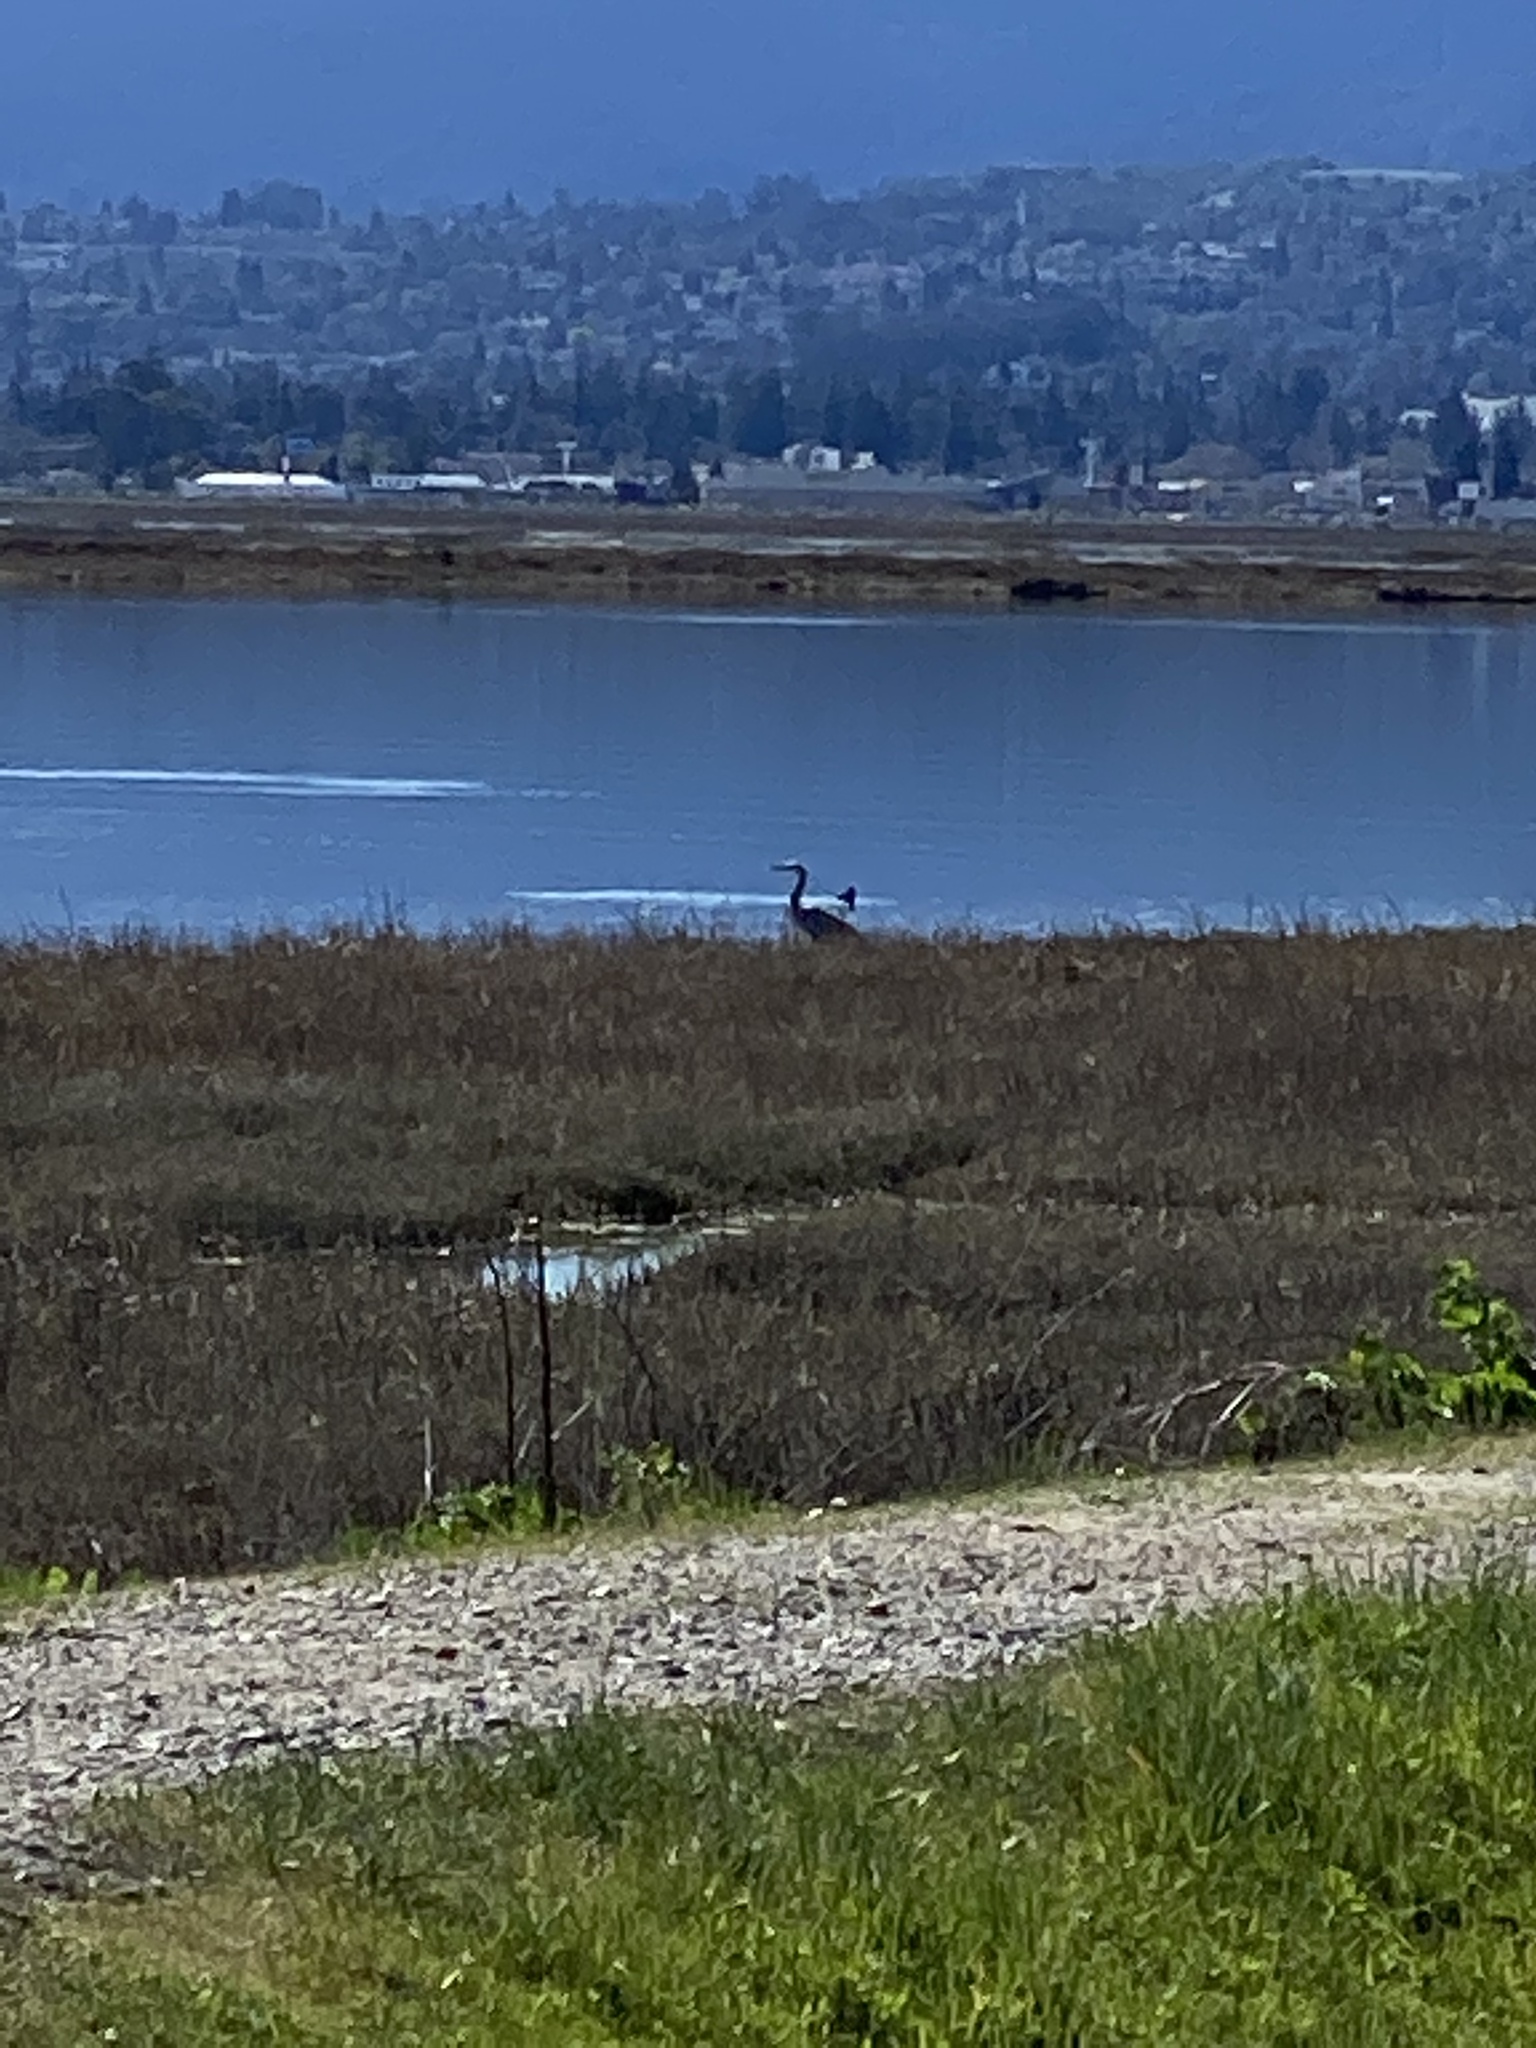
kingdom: Animalia
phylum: Chordata
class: Aves
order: Pelecaniformes
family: Ardeidae
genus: Ardea
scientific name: Ardea herodias
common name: Great blue heron
